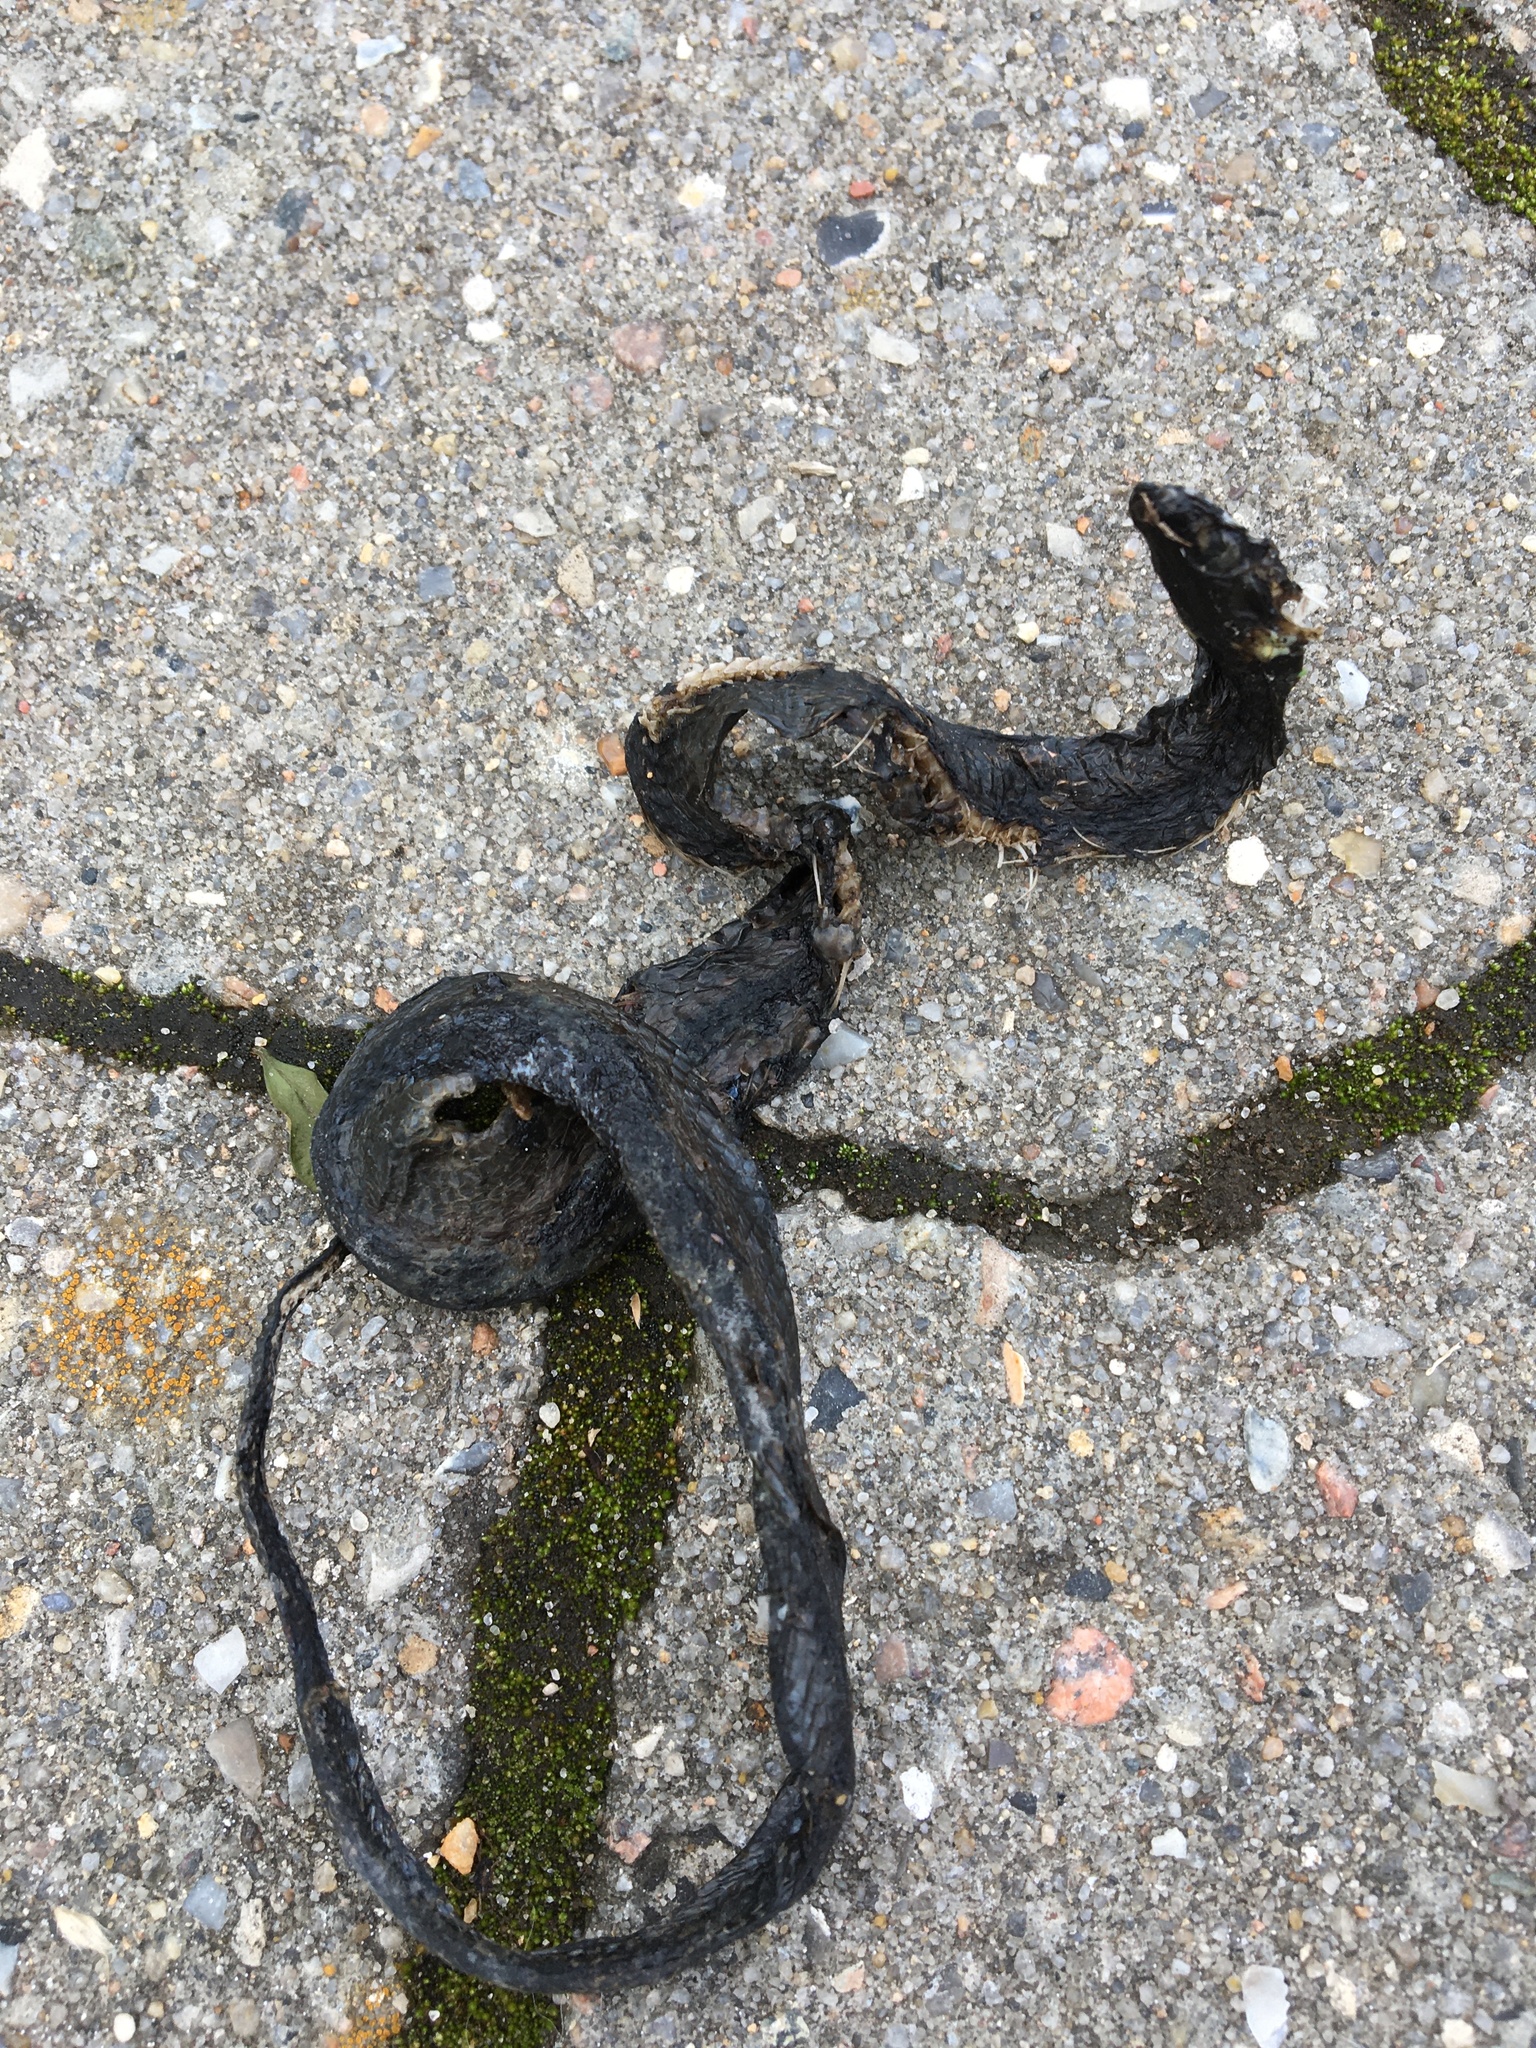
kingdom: Animalia
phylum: Chordata
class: Squamata
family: Colubridae
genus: Natrix
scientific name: Natrix natrix
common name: Grass snake
